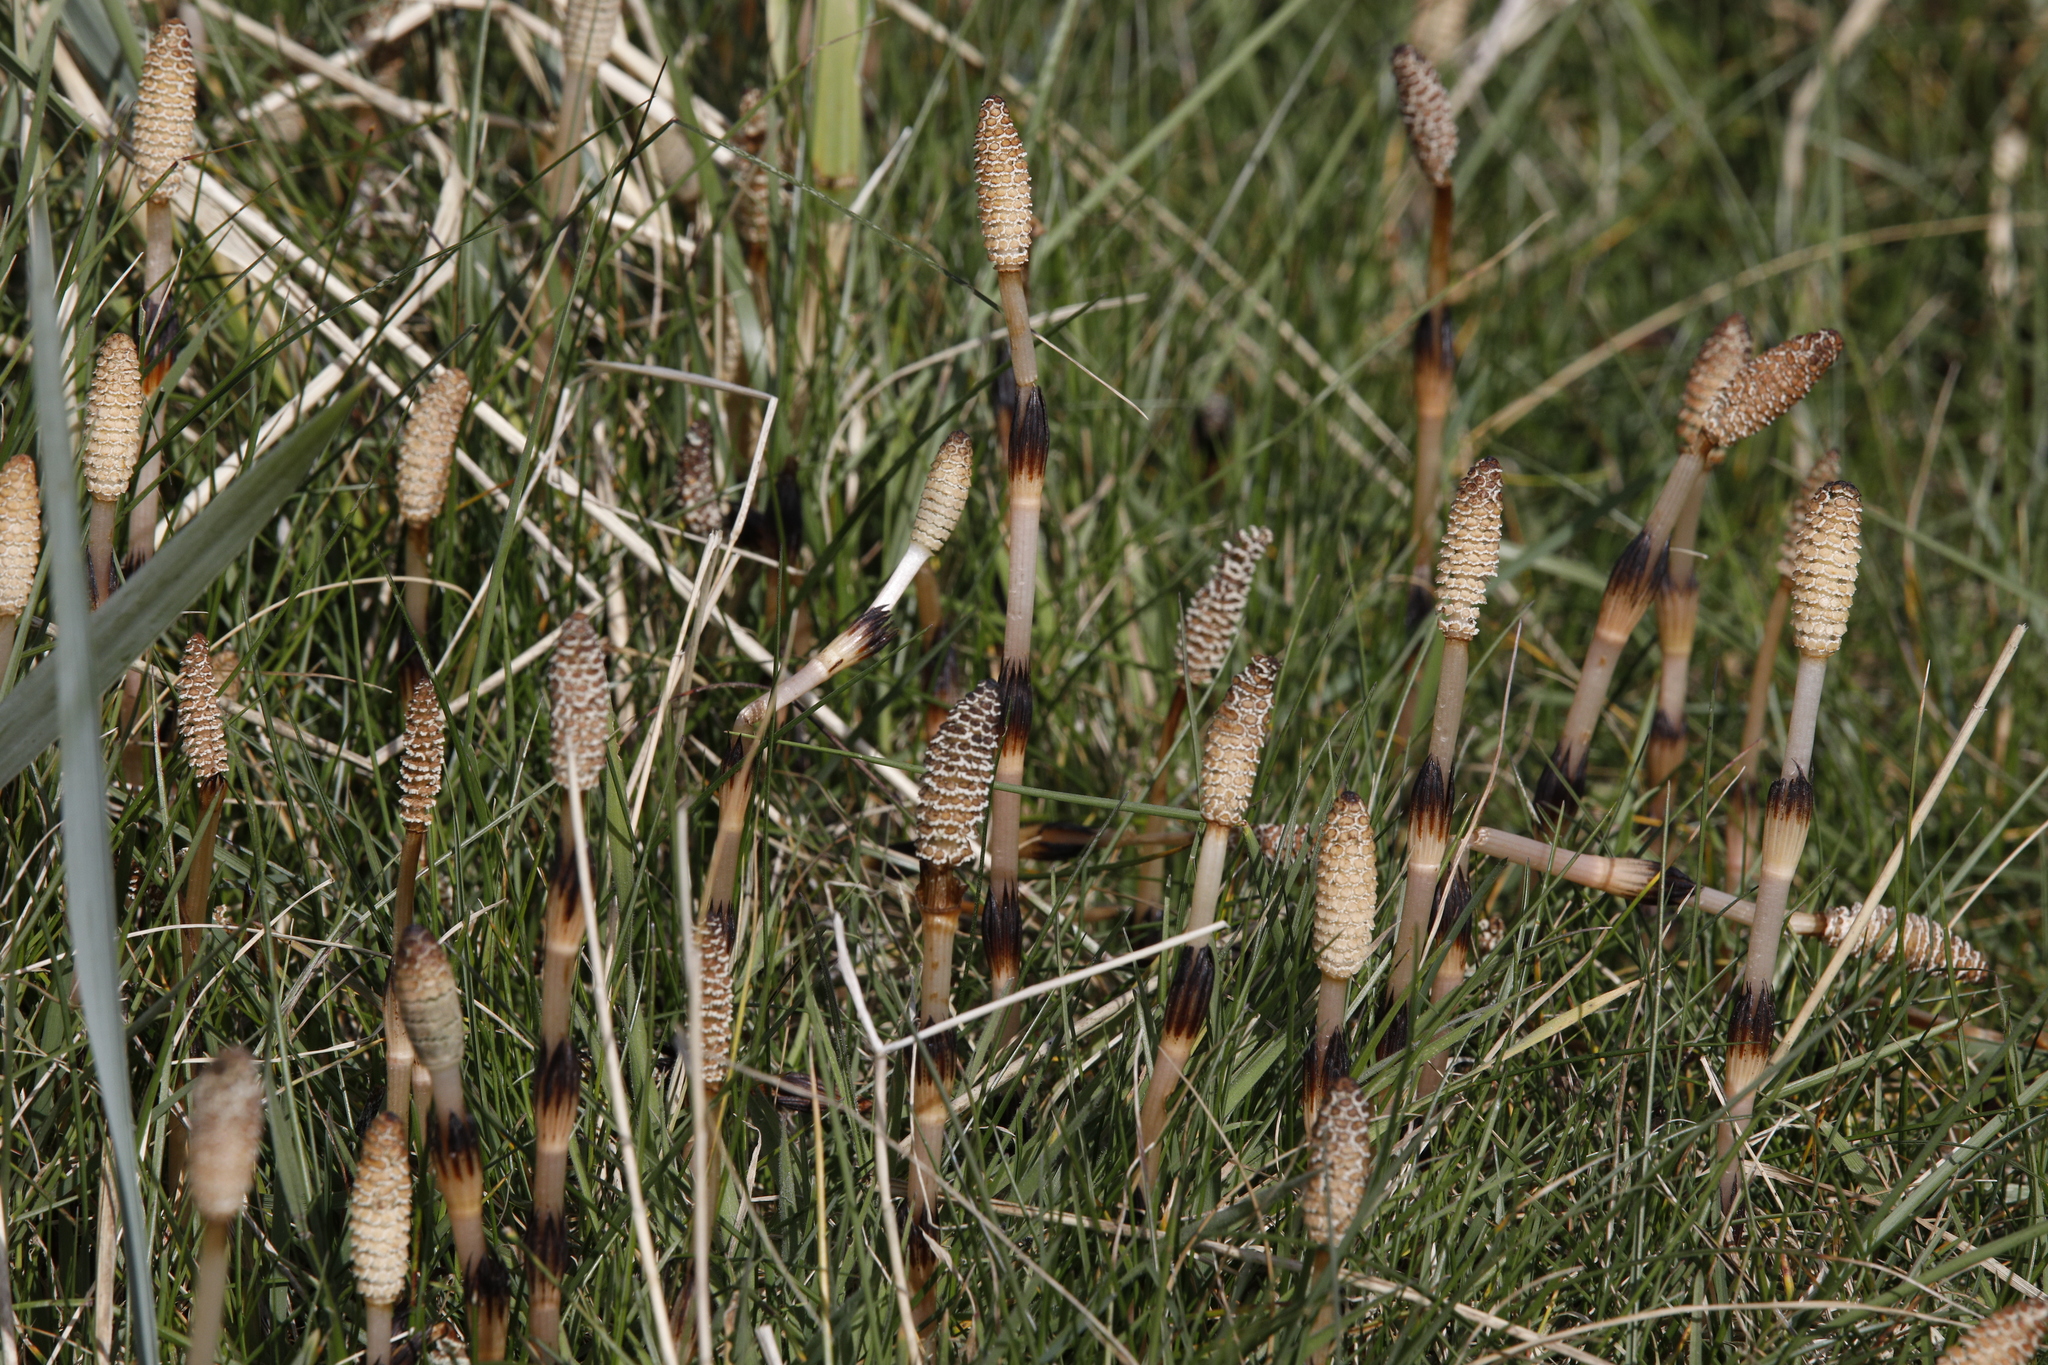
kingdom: Plantae
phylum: Tracheophyta
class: Polypodiopsida
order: Equisetales
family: Equisetaceae
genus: Equisetum
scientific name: Equisetum arvense
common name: Field horsetail
